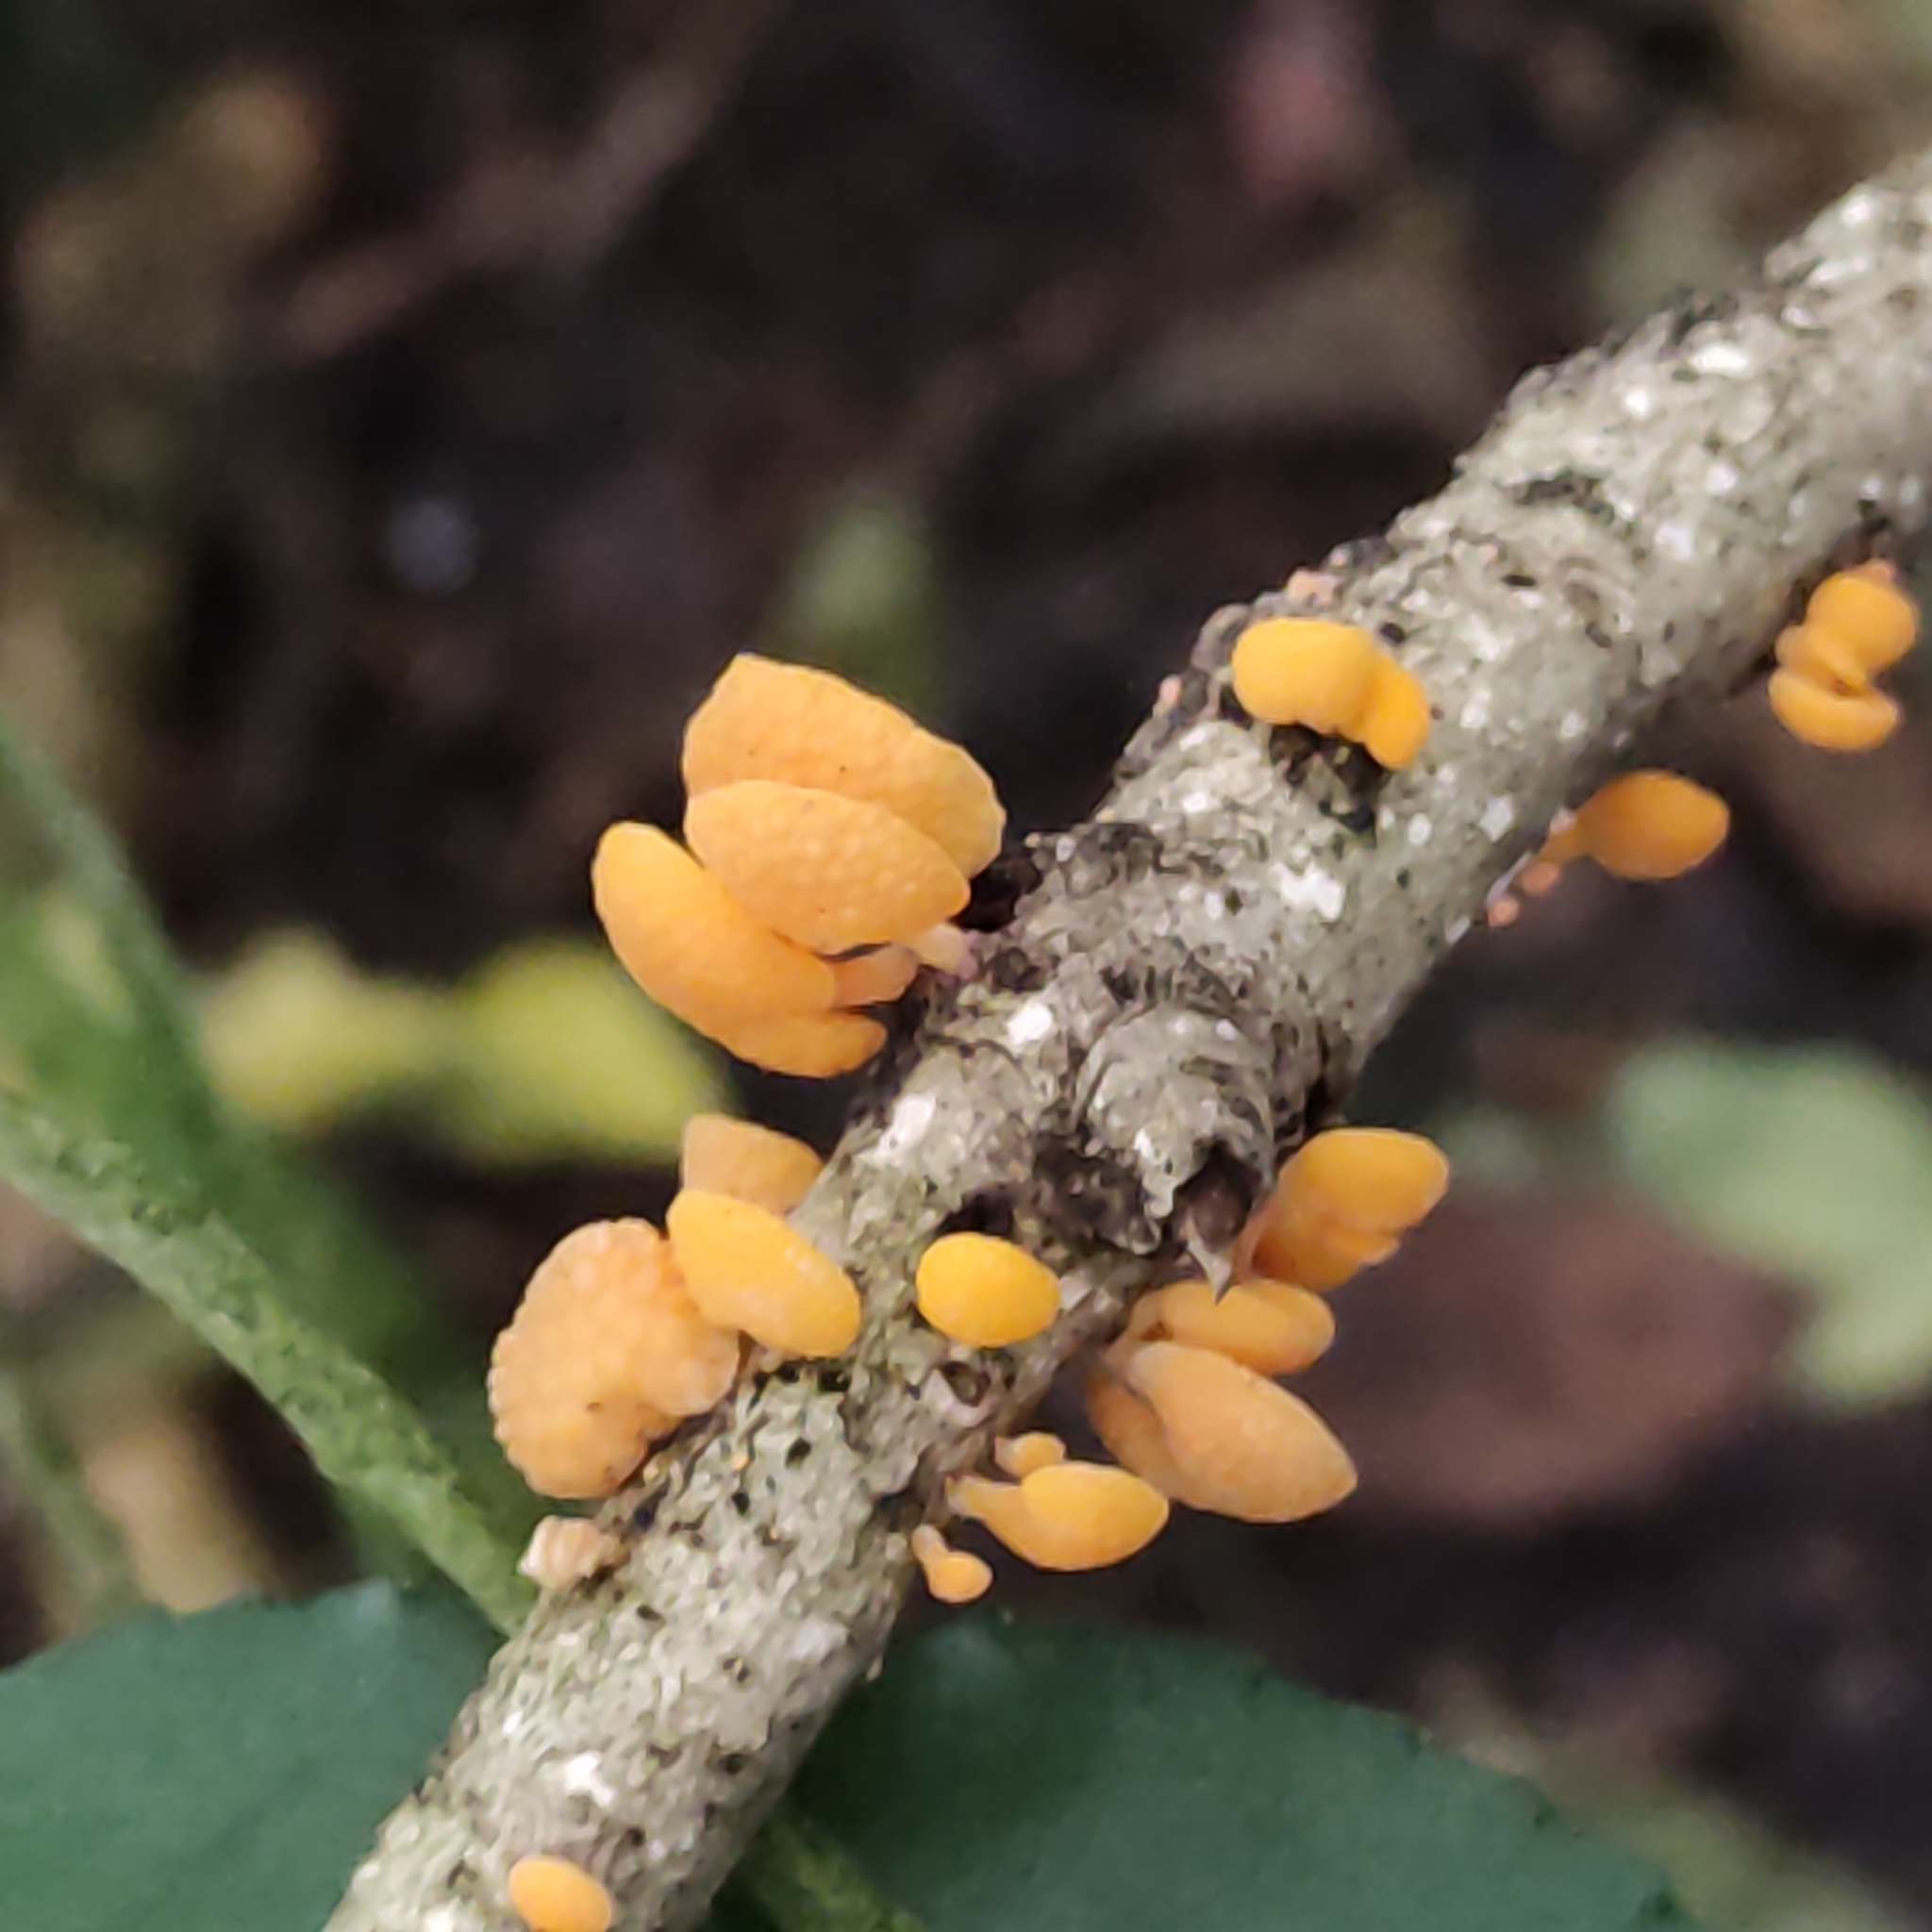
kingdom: Fungi
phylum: Basidiomycota
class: Agaricomycetes
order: Agaricales
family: Mycenaceae
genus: Favolaschia
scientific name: Favolaschia claudopus
